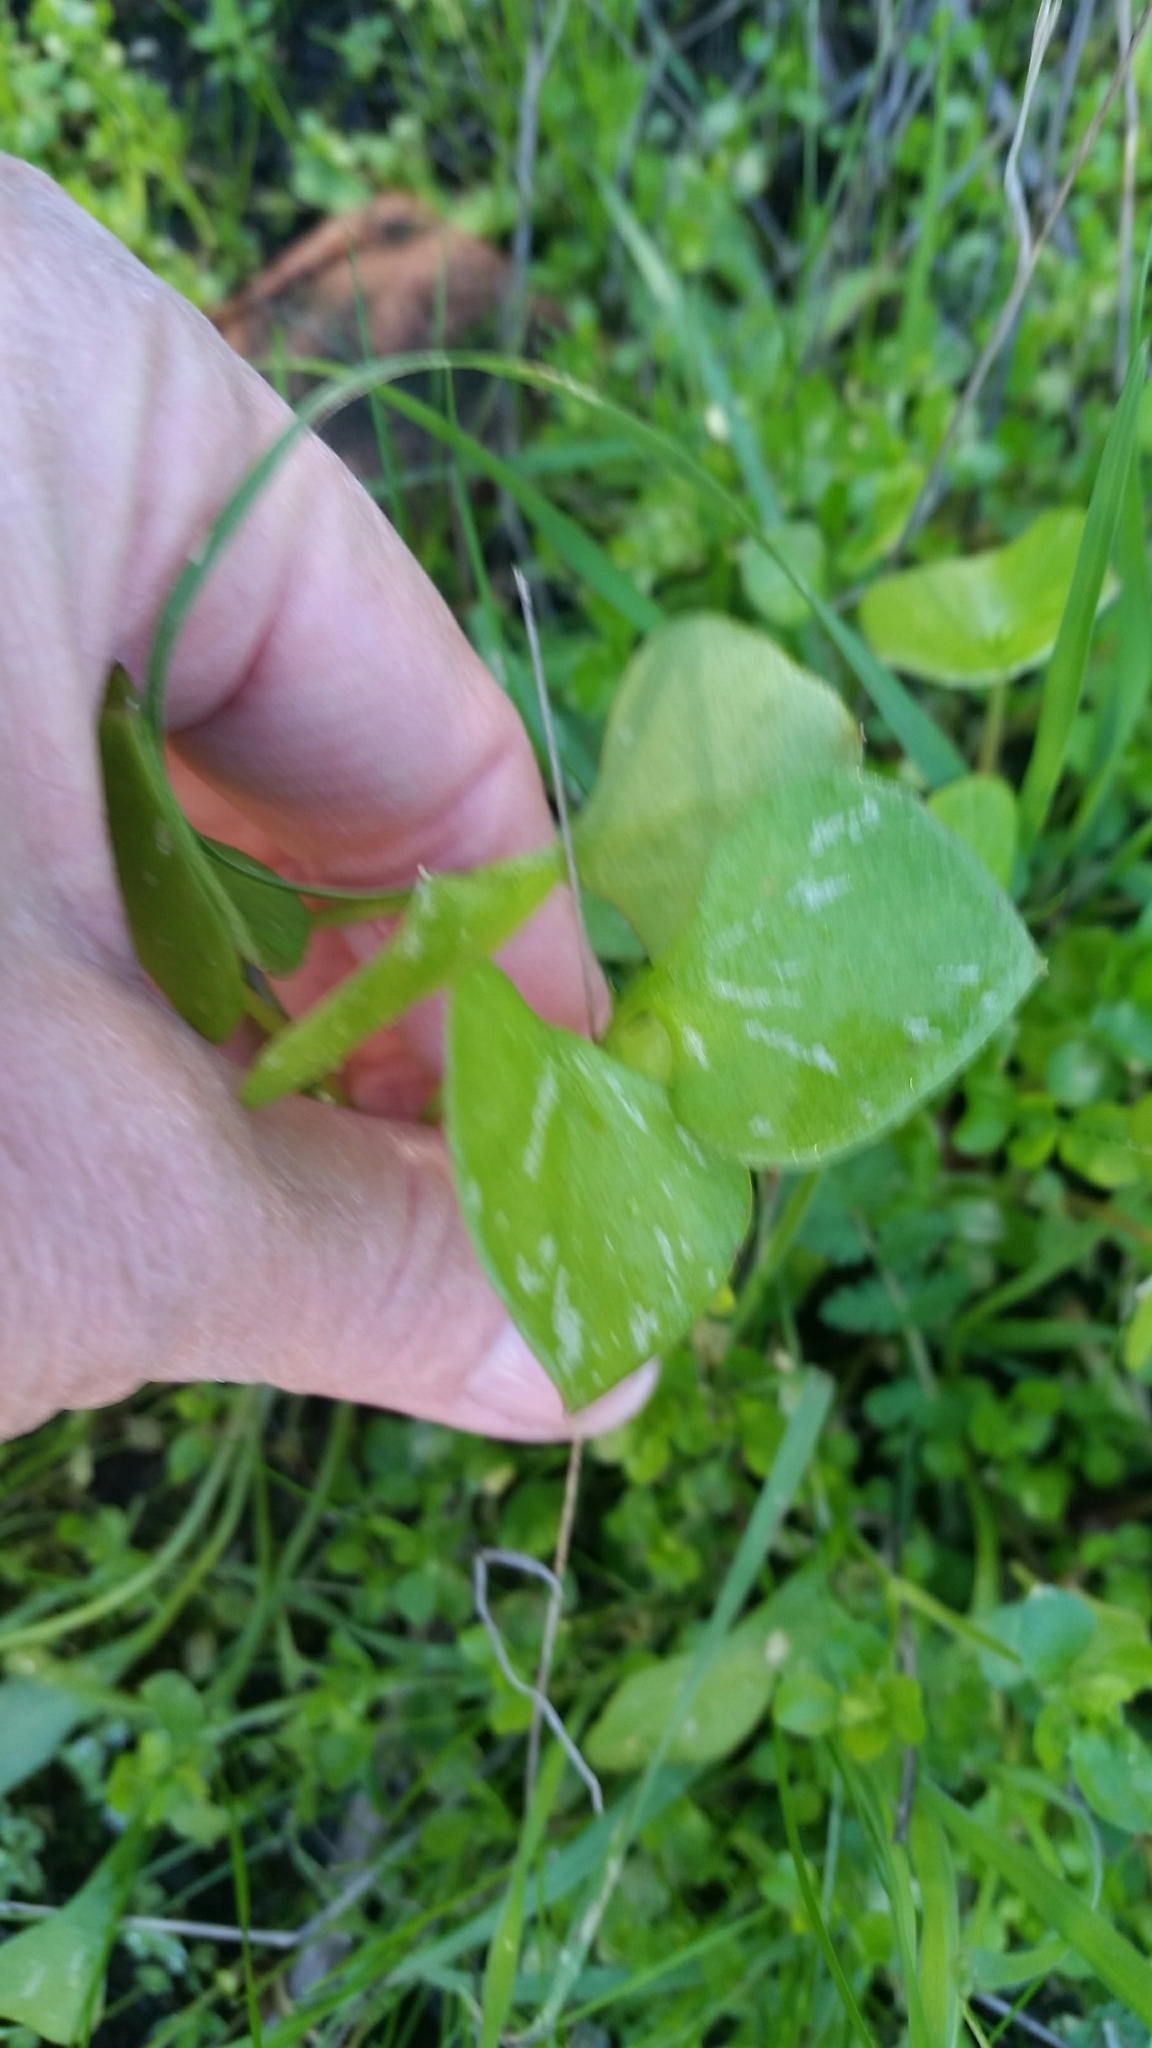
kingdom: Plantae
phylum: Tracheophyta
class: Magnoliopsida
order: Caryophyllales
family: Montiaceae
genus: Claytonia
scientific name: Claytonia perfoliata
